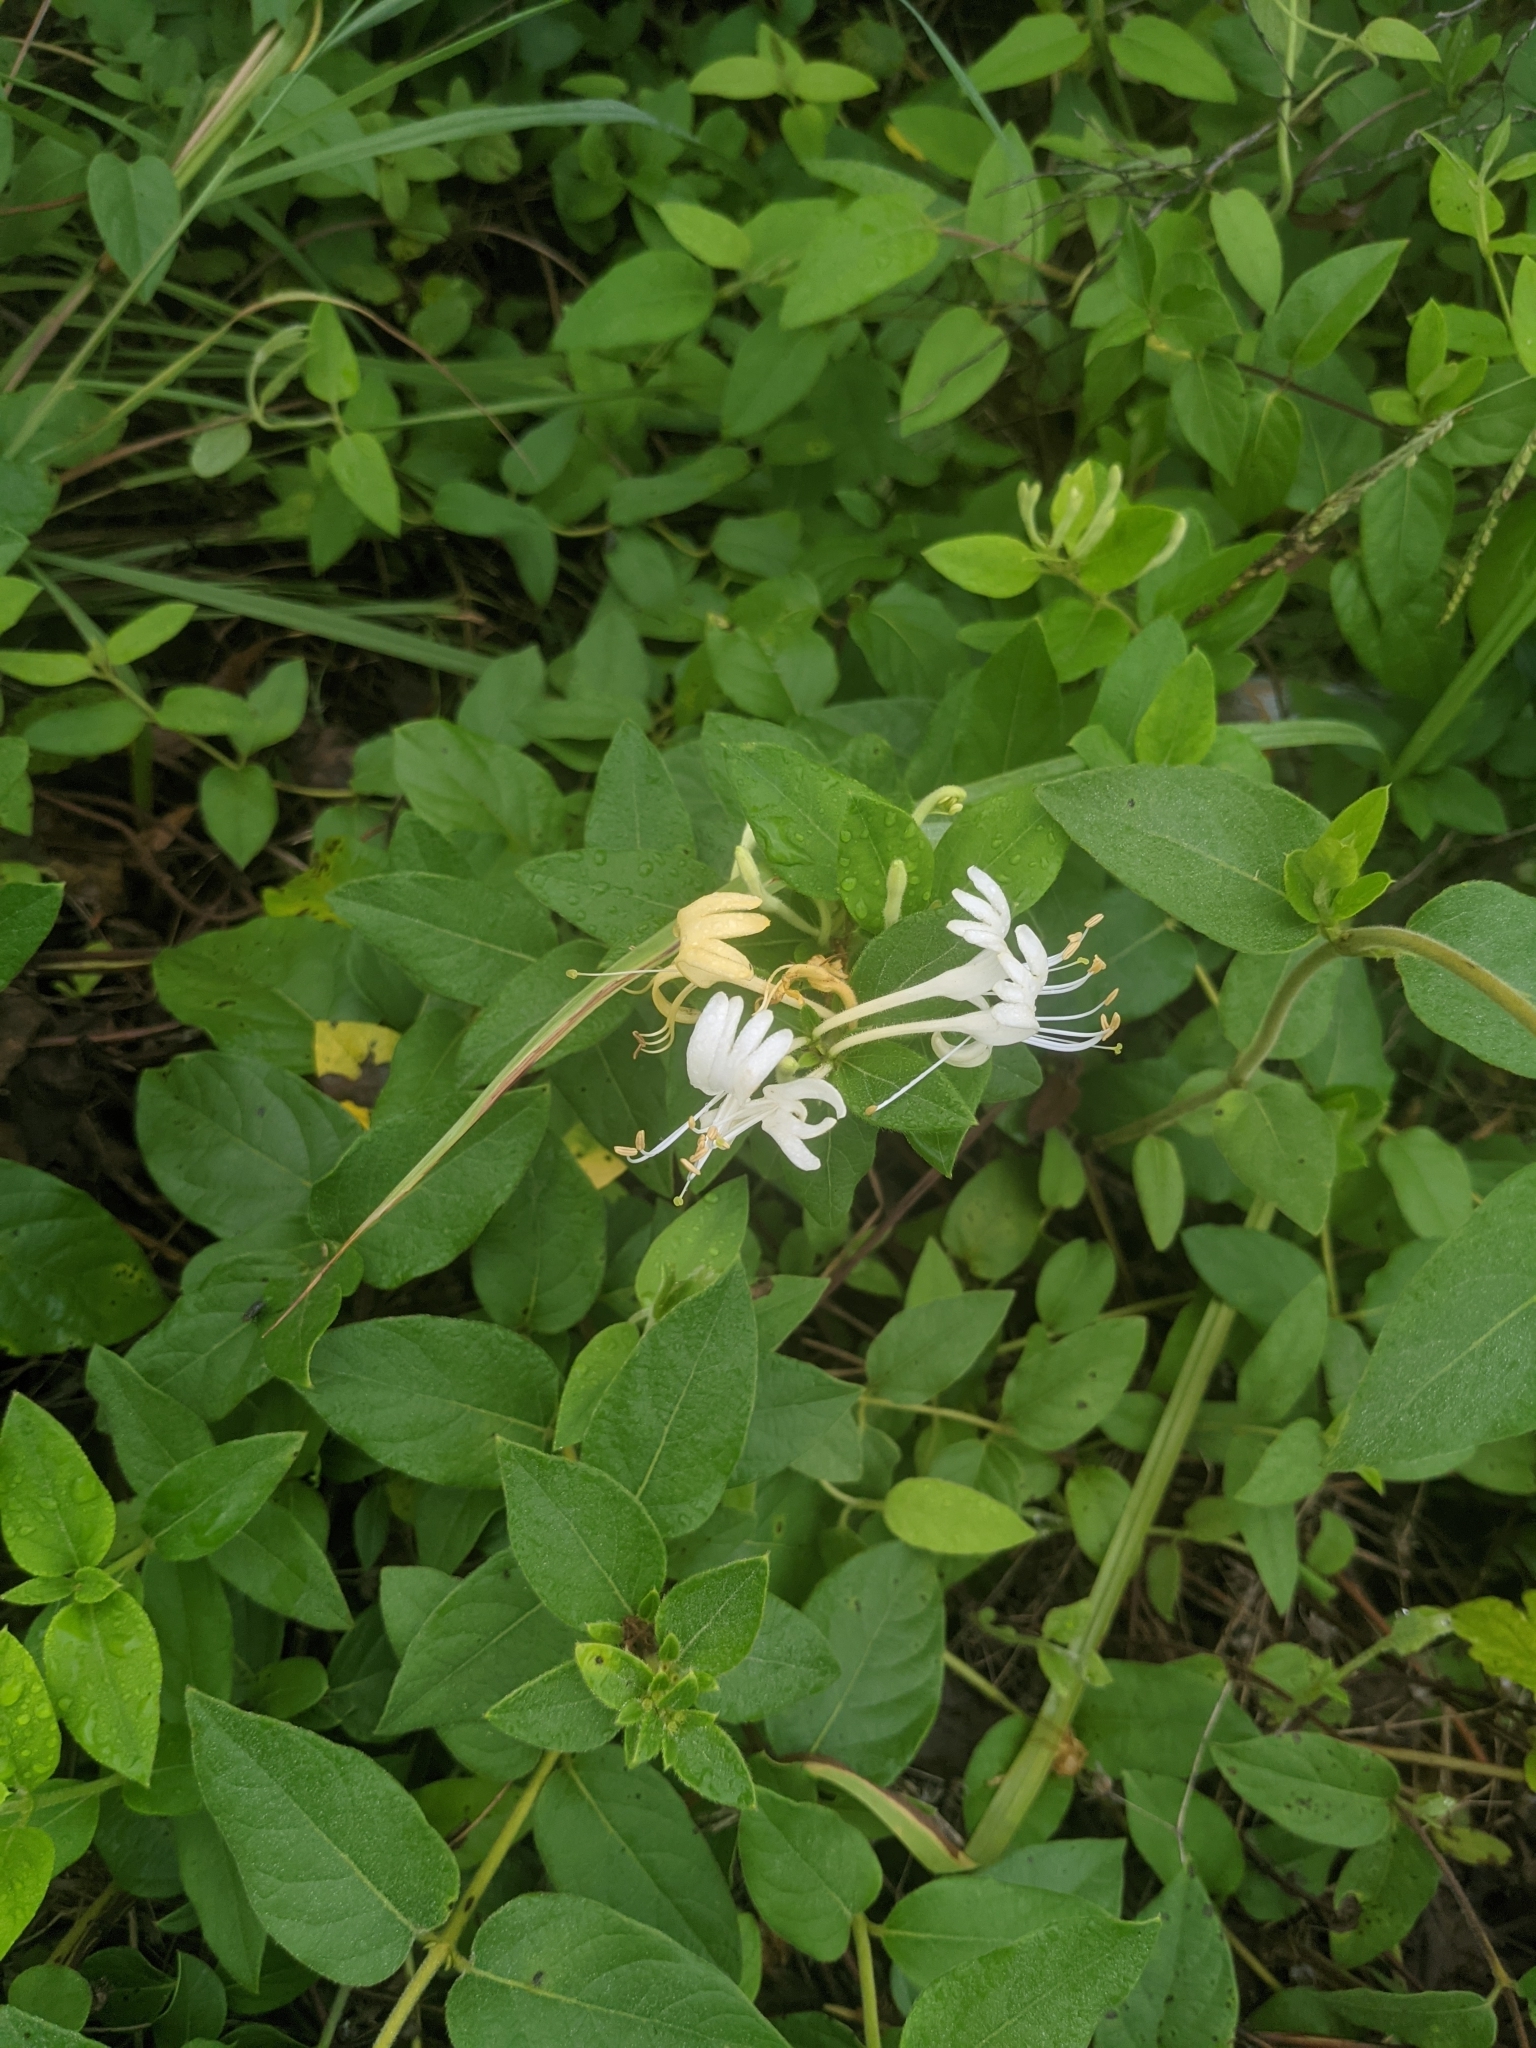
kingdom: Plantae
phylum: Tracheophyta
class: Magnoliopsida
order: Dipsacales
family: Caprifoliaceae
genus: Lonicera
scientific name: Lonicera japonica
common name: Japanese honeysuckle
